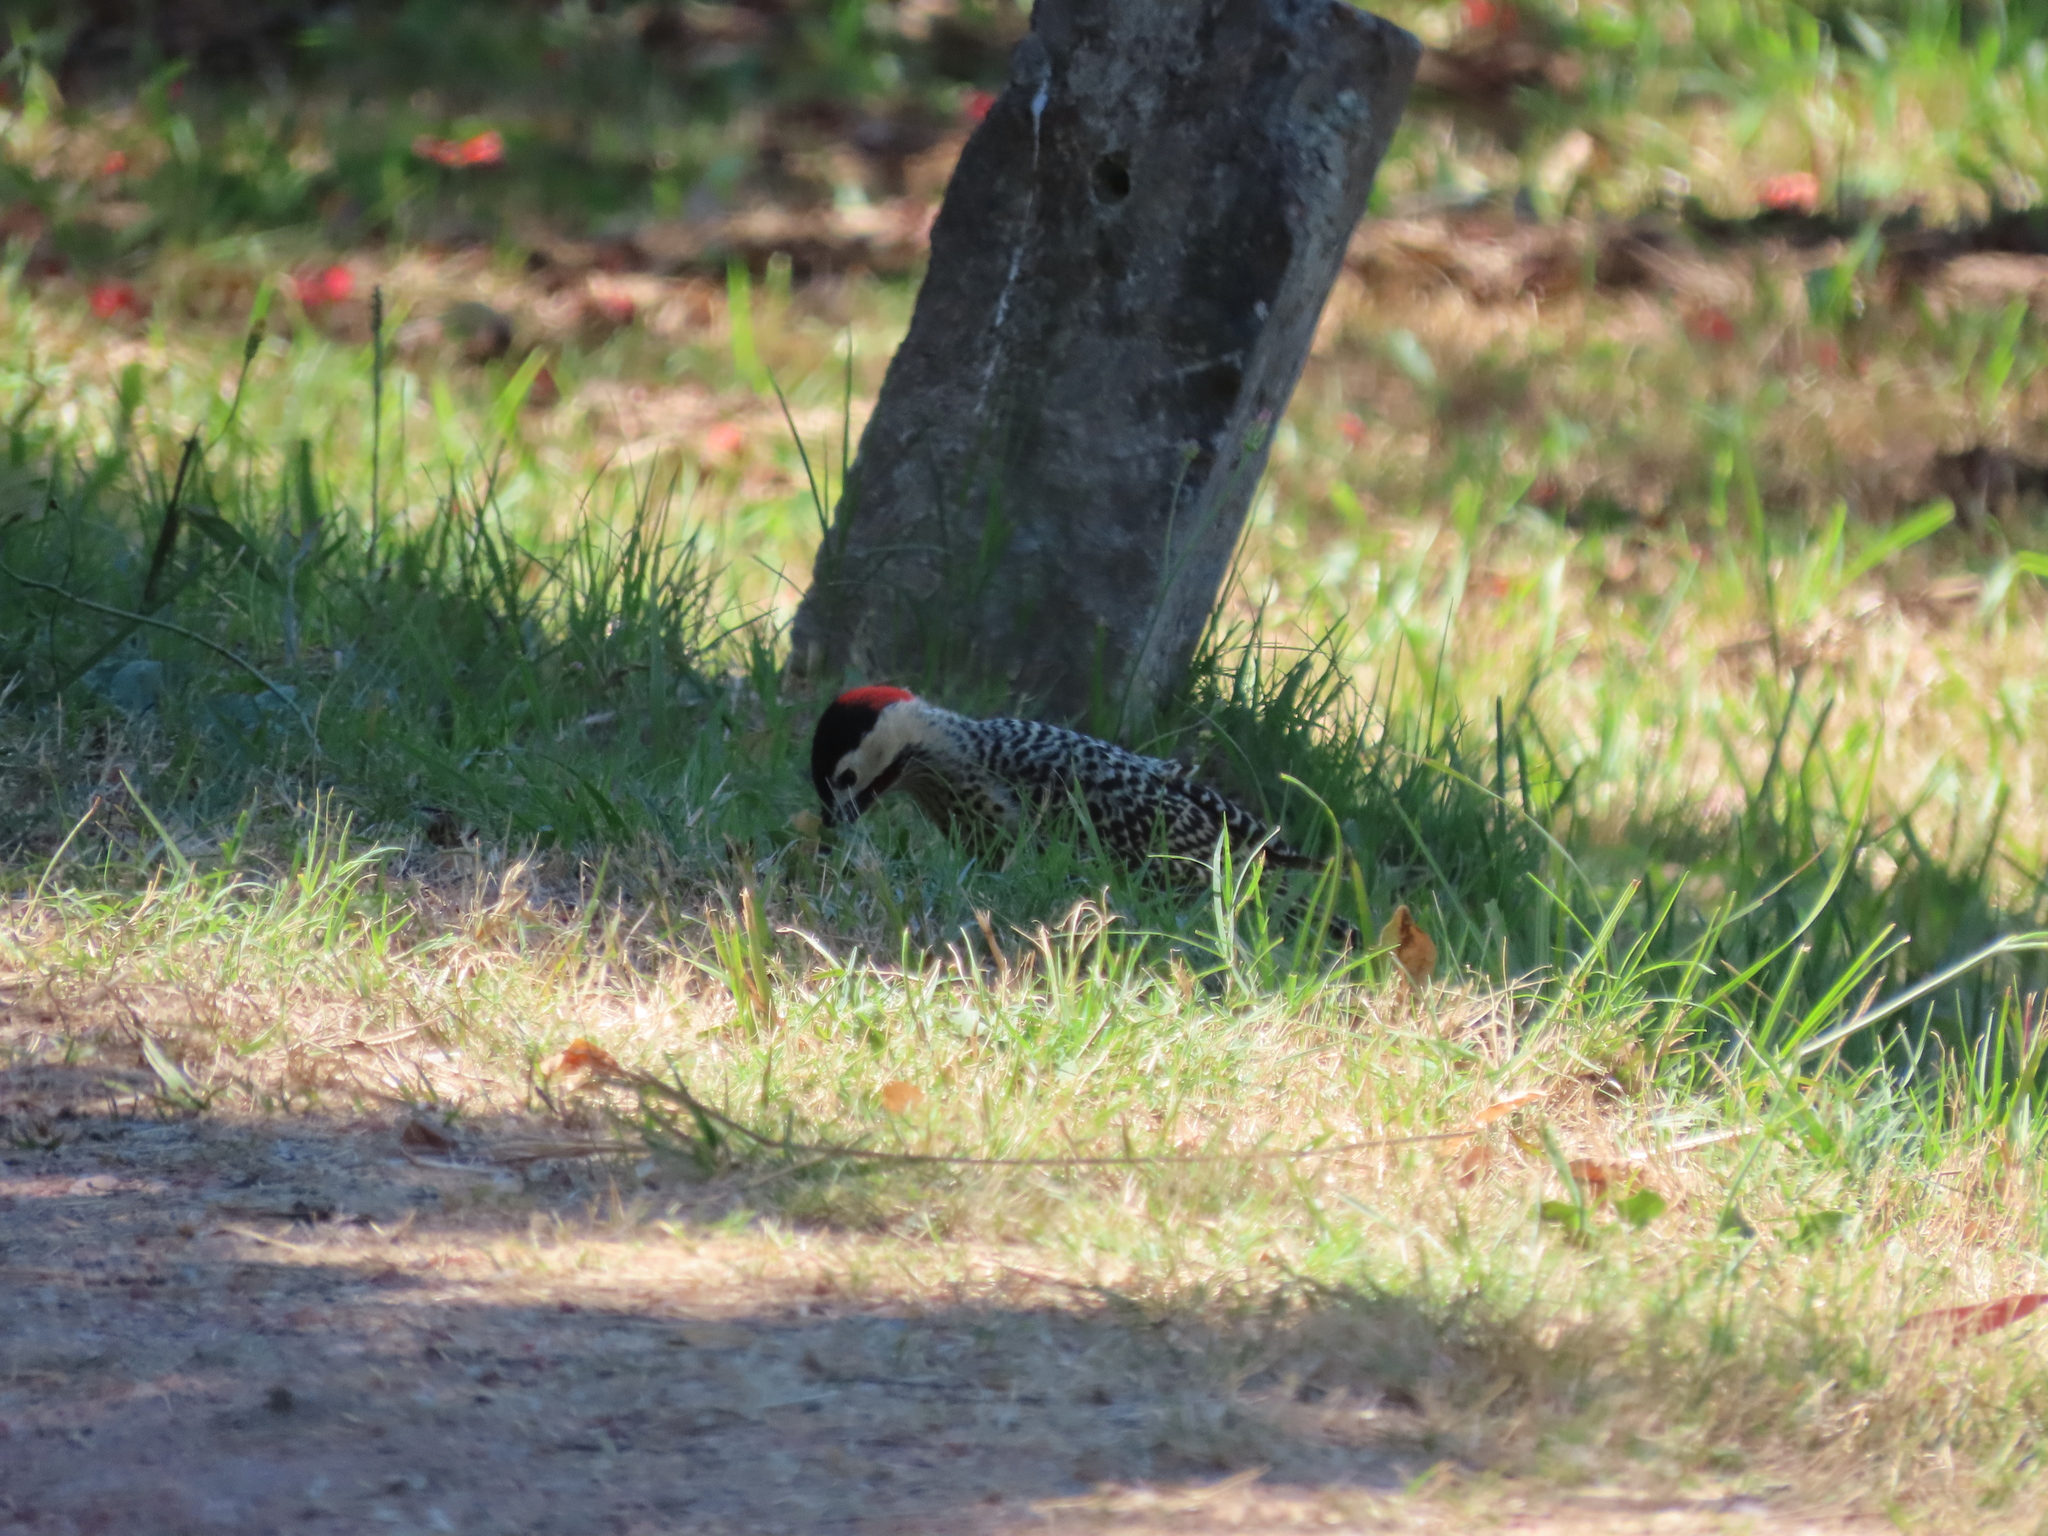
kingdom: Animalia
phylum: Chordata
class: Aves
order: Piciformes
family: Picidae
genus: Colaptes
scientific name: Colaptes melanochloros
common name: Green-barred woodpecker
